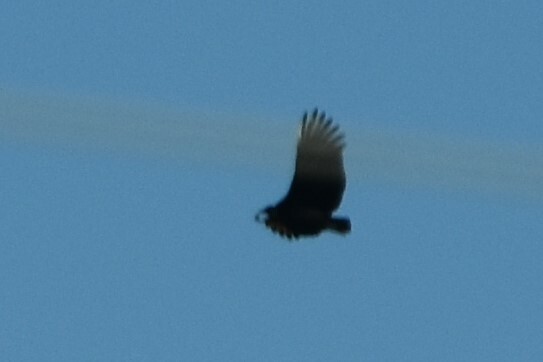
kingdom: Animalia
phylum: Chordata
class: Aves
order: Accipitriformes
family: Cathartidae
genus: Coragyps
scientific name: Coragyps atratus
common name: Black vulture
